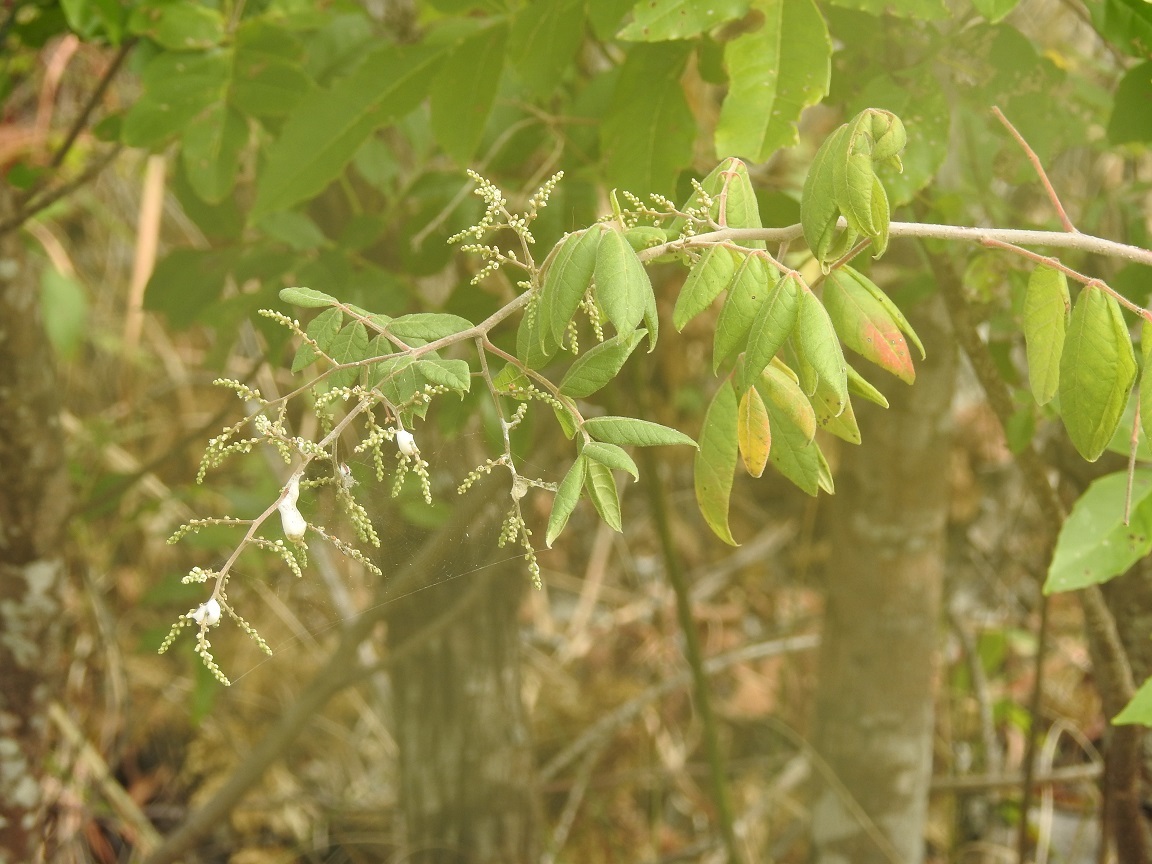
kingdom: Plantae
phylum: Tracheophyta
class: Magnoliopsida
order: Sapindales
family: Anacardiaceae
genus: Rhus
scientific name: Rhus terebinthifolia
